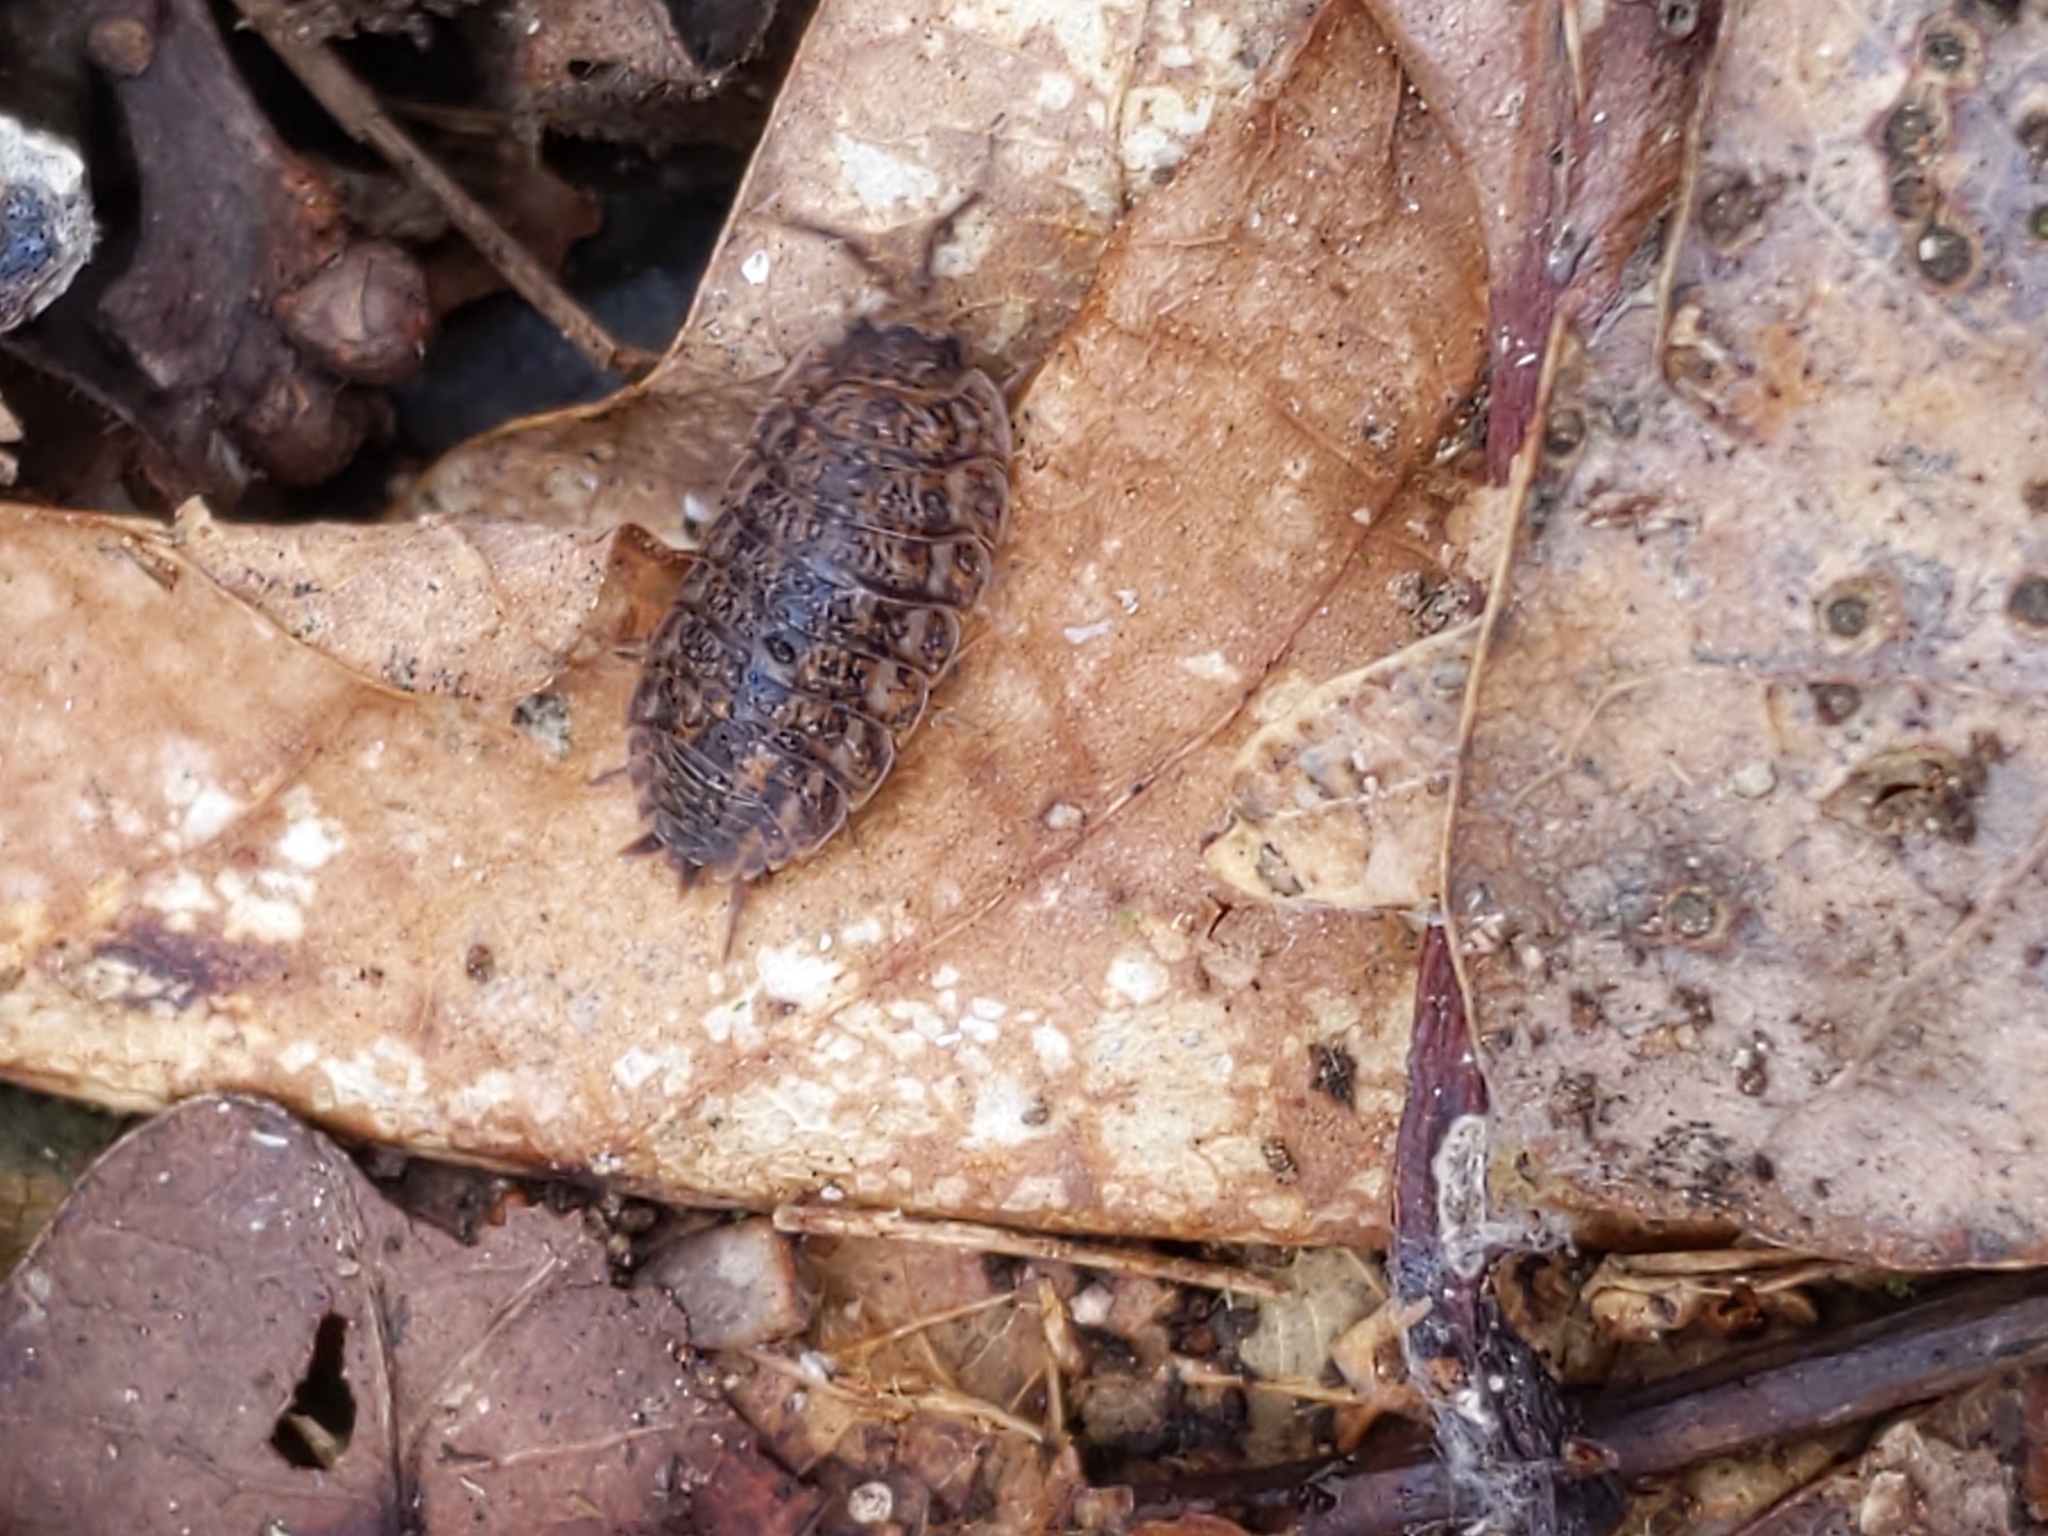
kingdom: Animalia
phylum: Arthropoda
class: Malacostraca
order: Isopoda
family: Trachelipodidae
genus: Trachelipus
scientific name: Trachelipus rathkii
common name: Isopod
